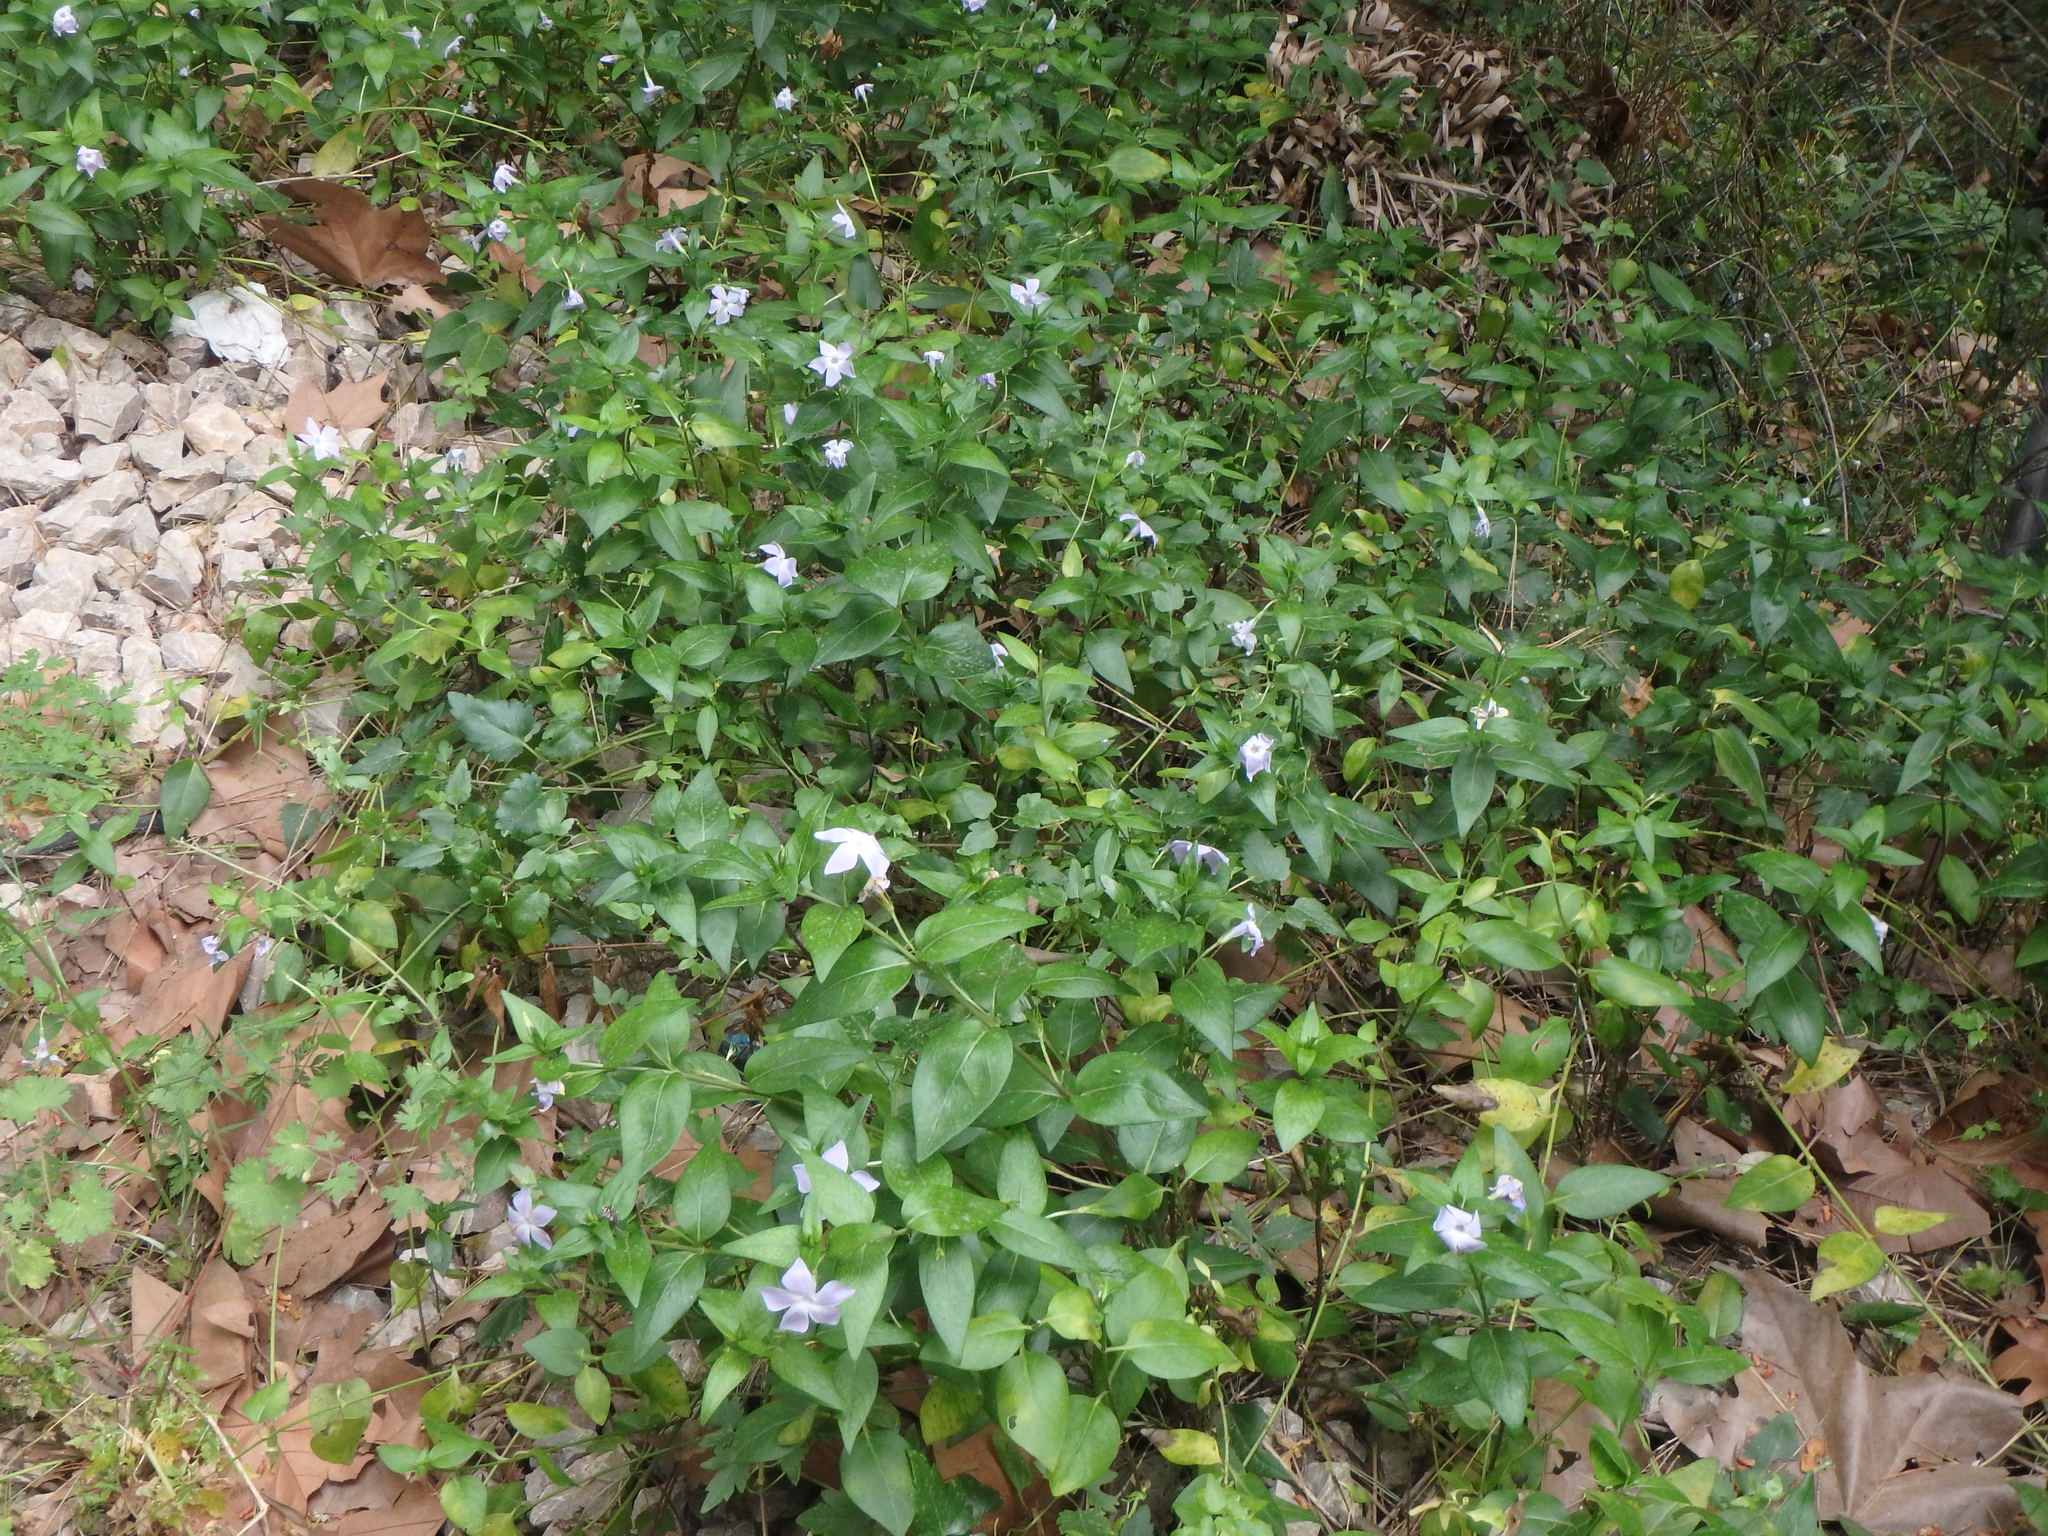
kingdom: Plantae
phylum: Tracheophyta
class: Magnoliopsida
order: Gentianales
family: Apocynaceae
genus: Vinca
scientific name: Vinca difformis
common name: Intermediate periwinkle
